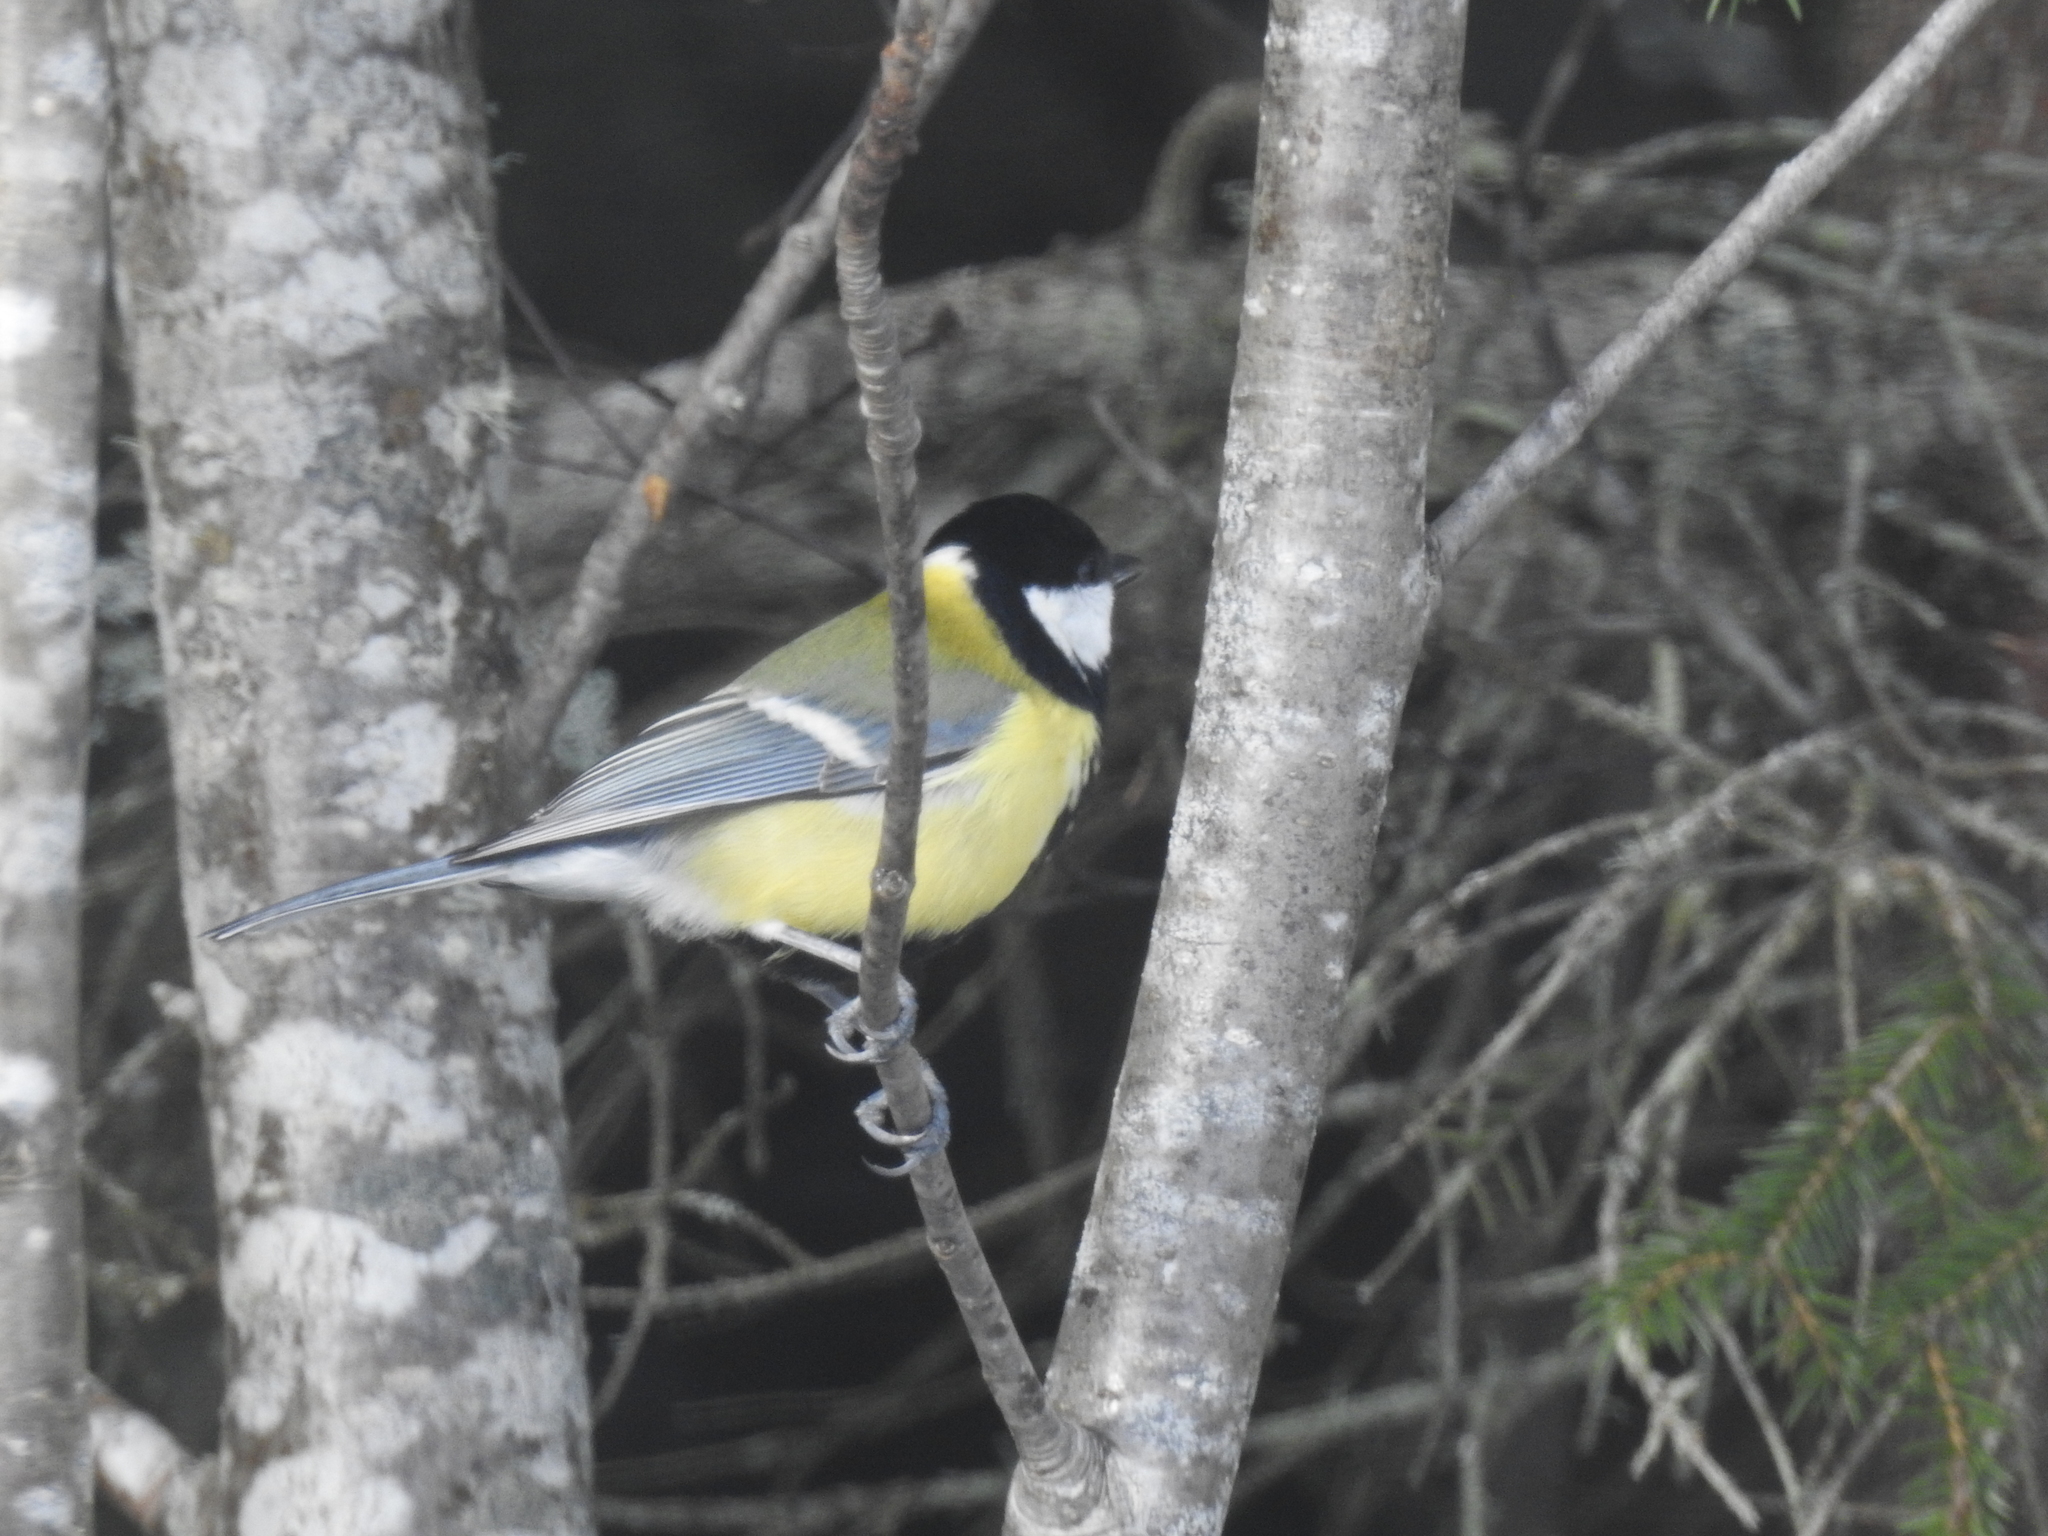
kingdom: Animalia
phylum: Chordata
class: Aves
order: Passeriformes
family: Paridae
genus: Parus
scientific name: Parus major
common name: Great tit
